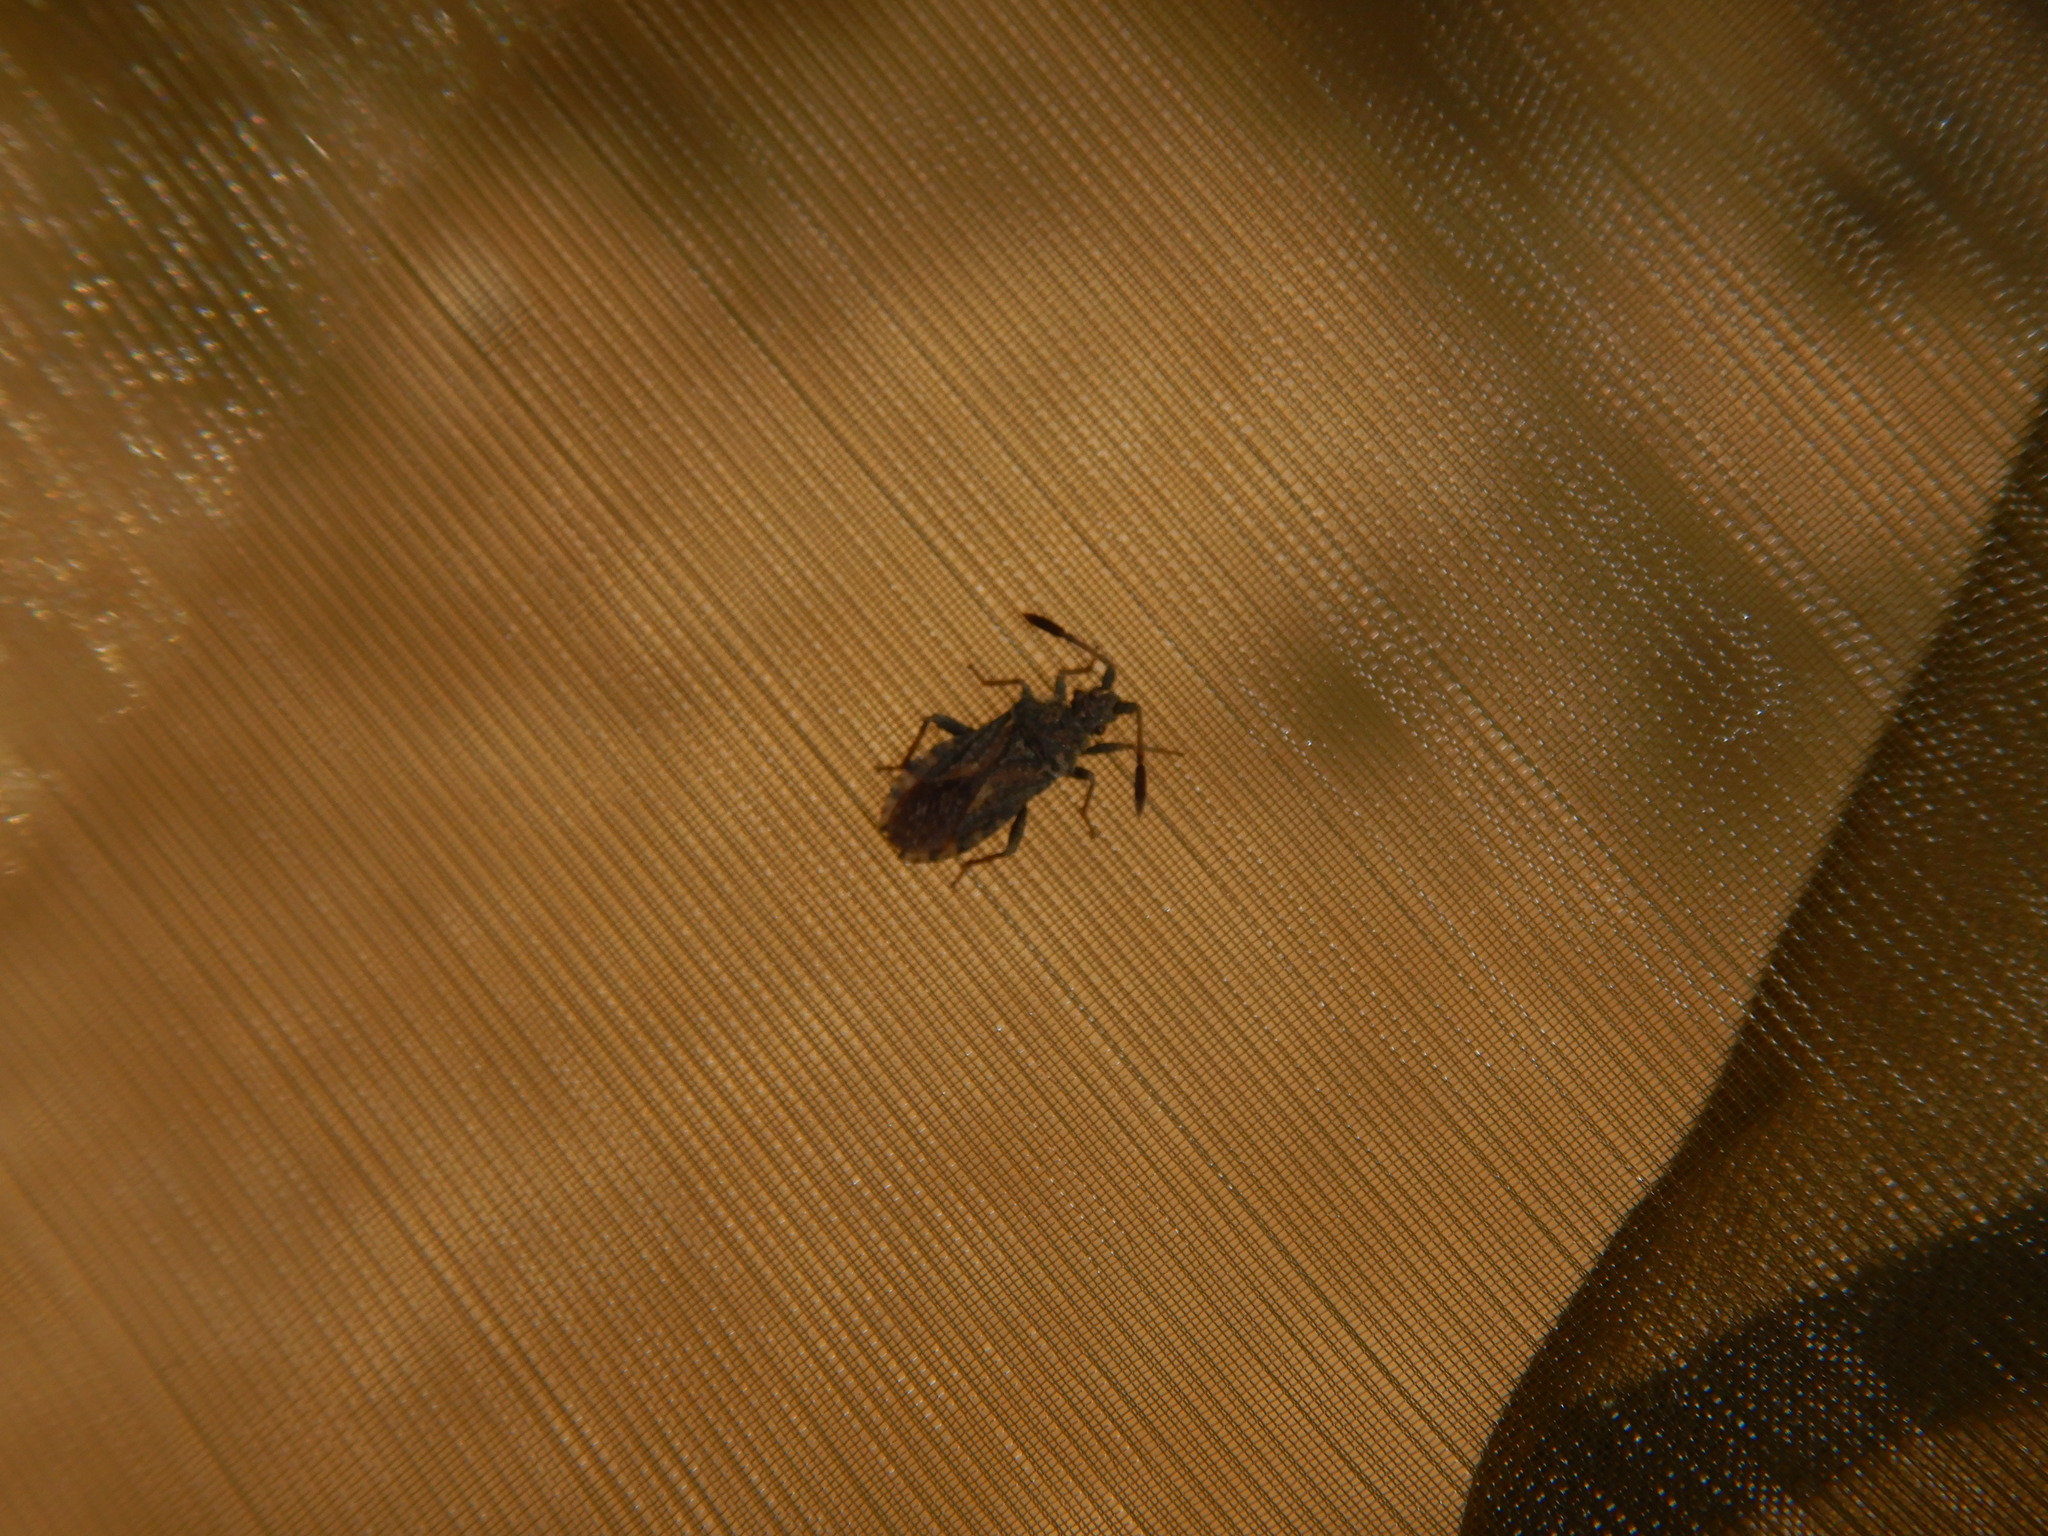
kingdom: Animalia
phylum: Arthropoda
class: Insecta
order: Hemiptera
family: Coreidae
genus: Strobilotoma
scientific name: Strobilotoma typhaecornis
